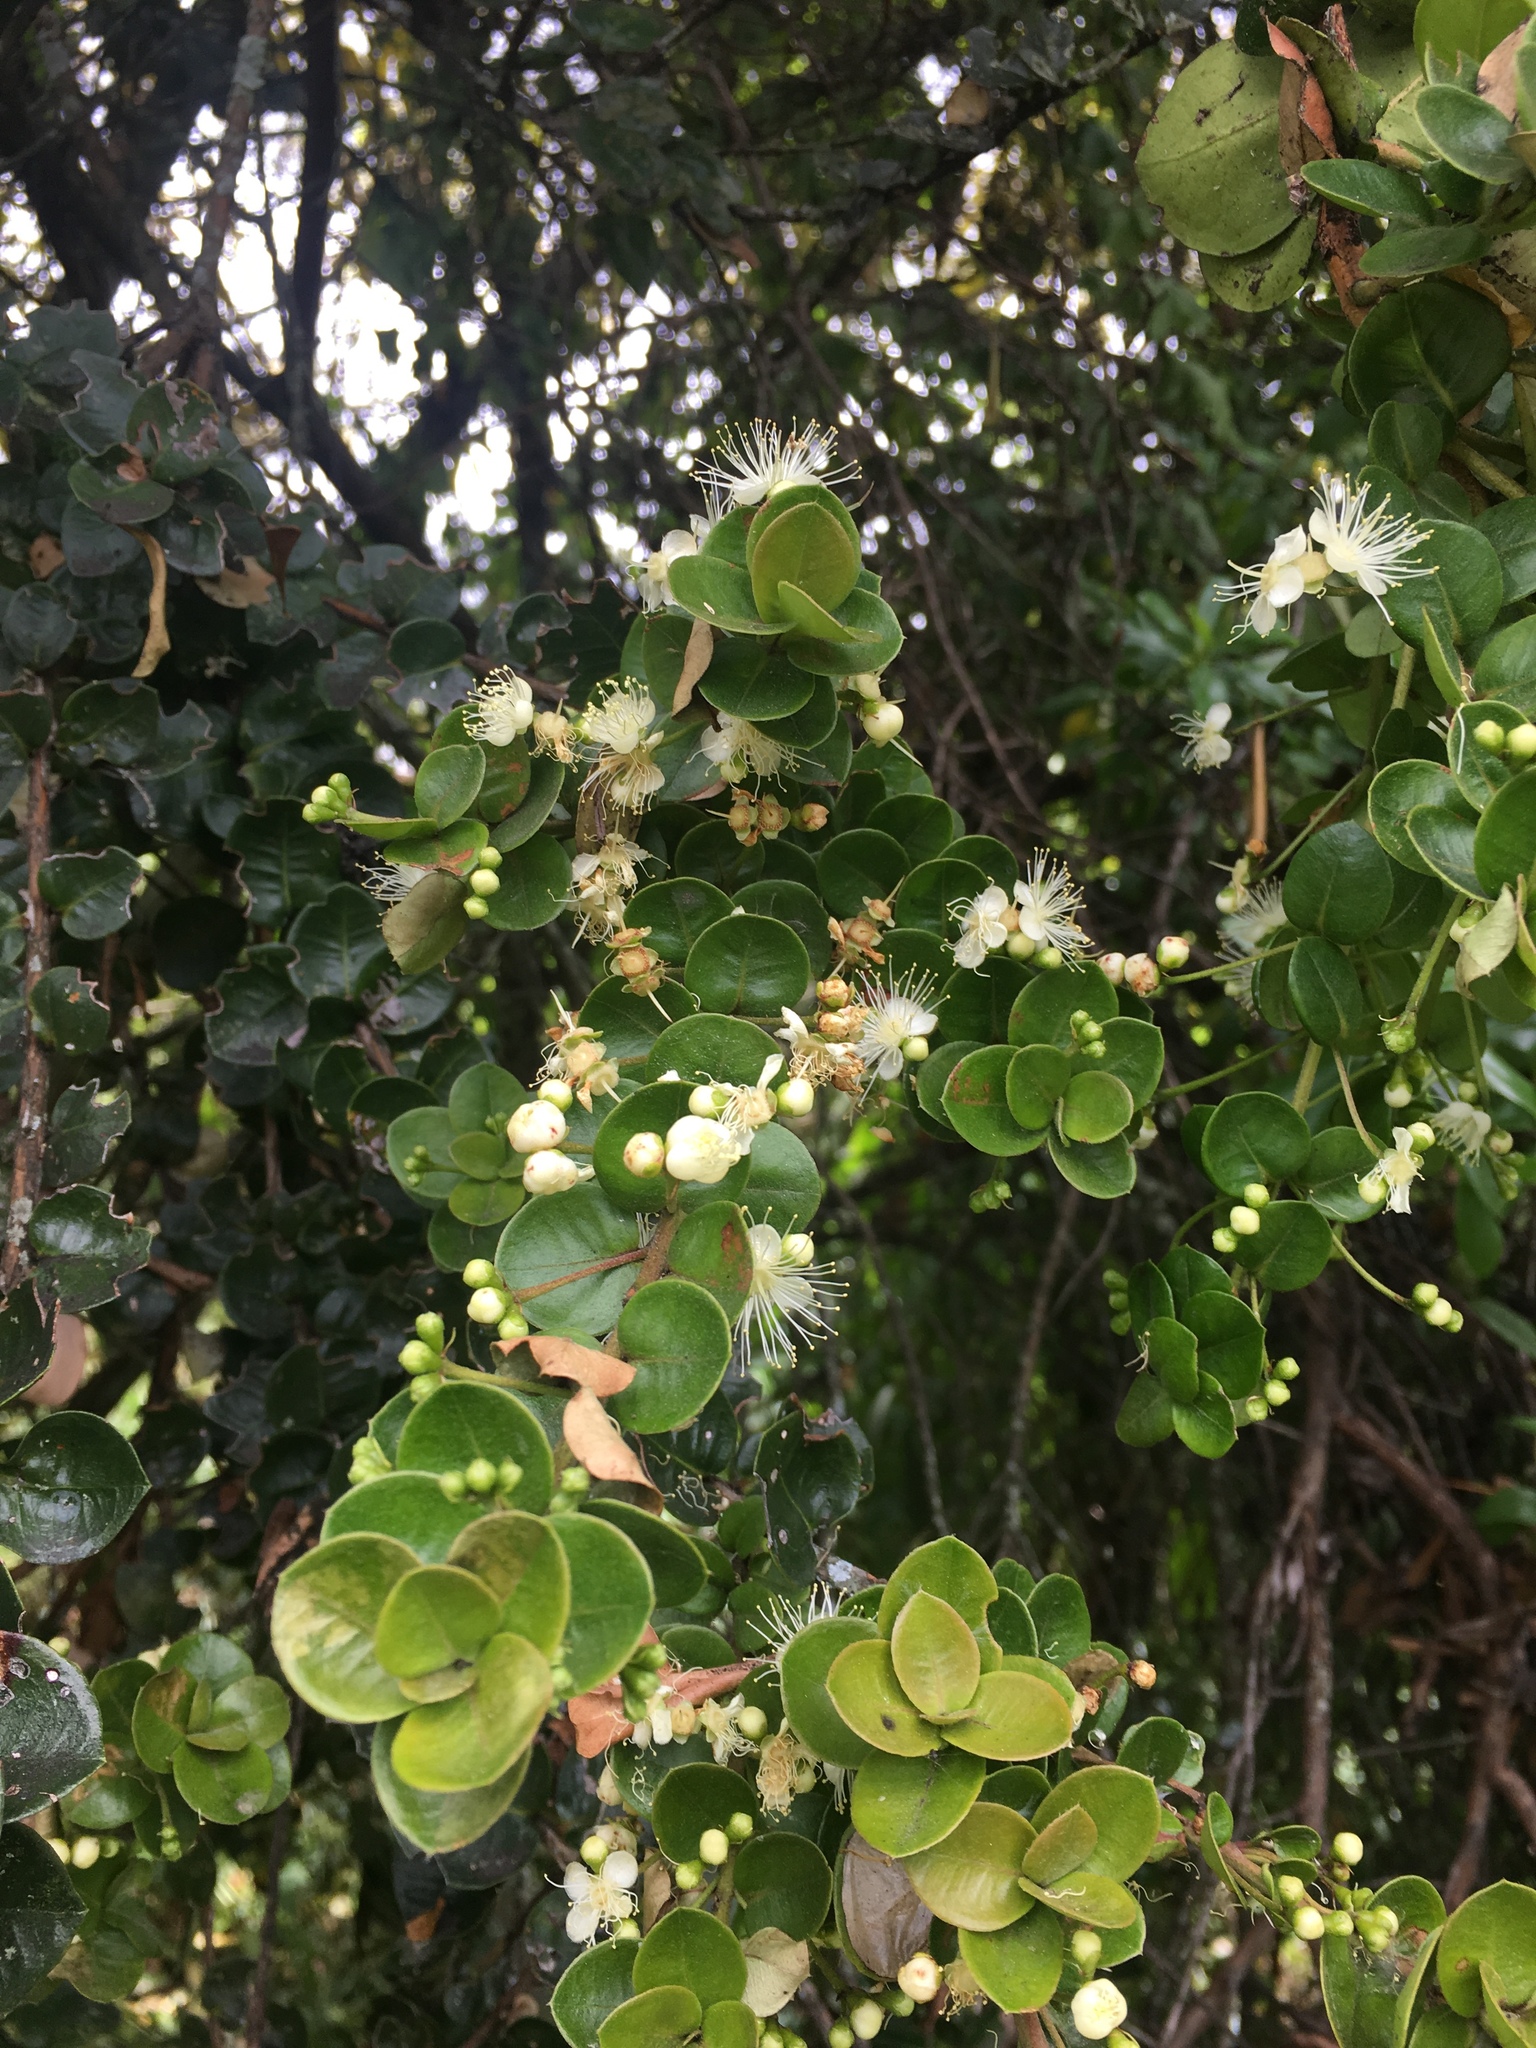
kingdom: Plantae
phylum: Tracheophyta
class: Magnoliopsida
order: Myrtales
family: Myrtaceae
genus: Myrcianthes
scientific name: Myrcianthes leucoxyla
